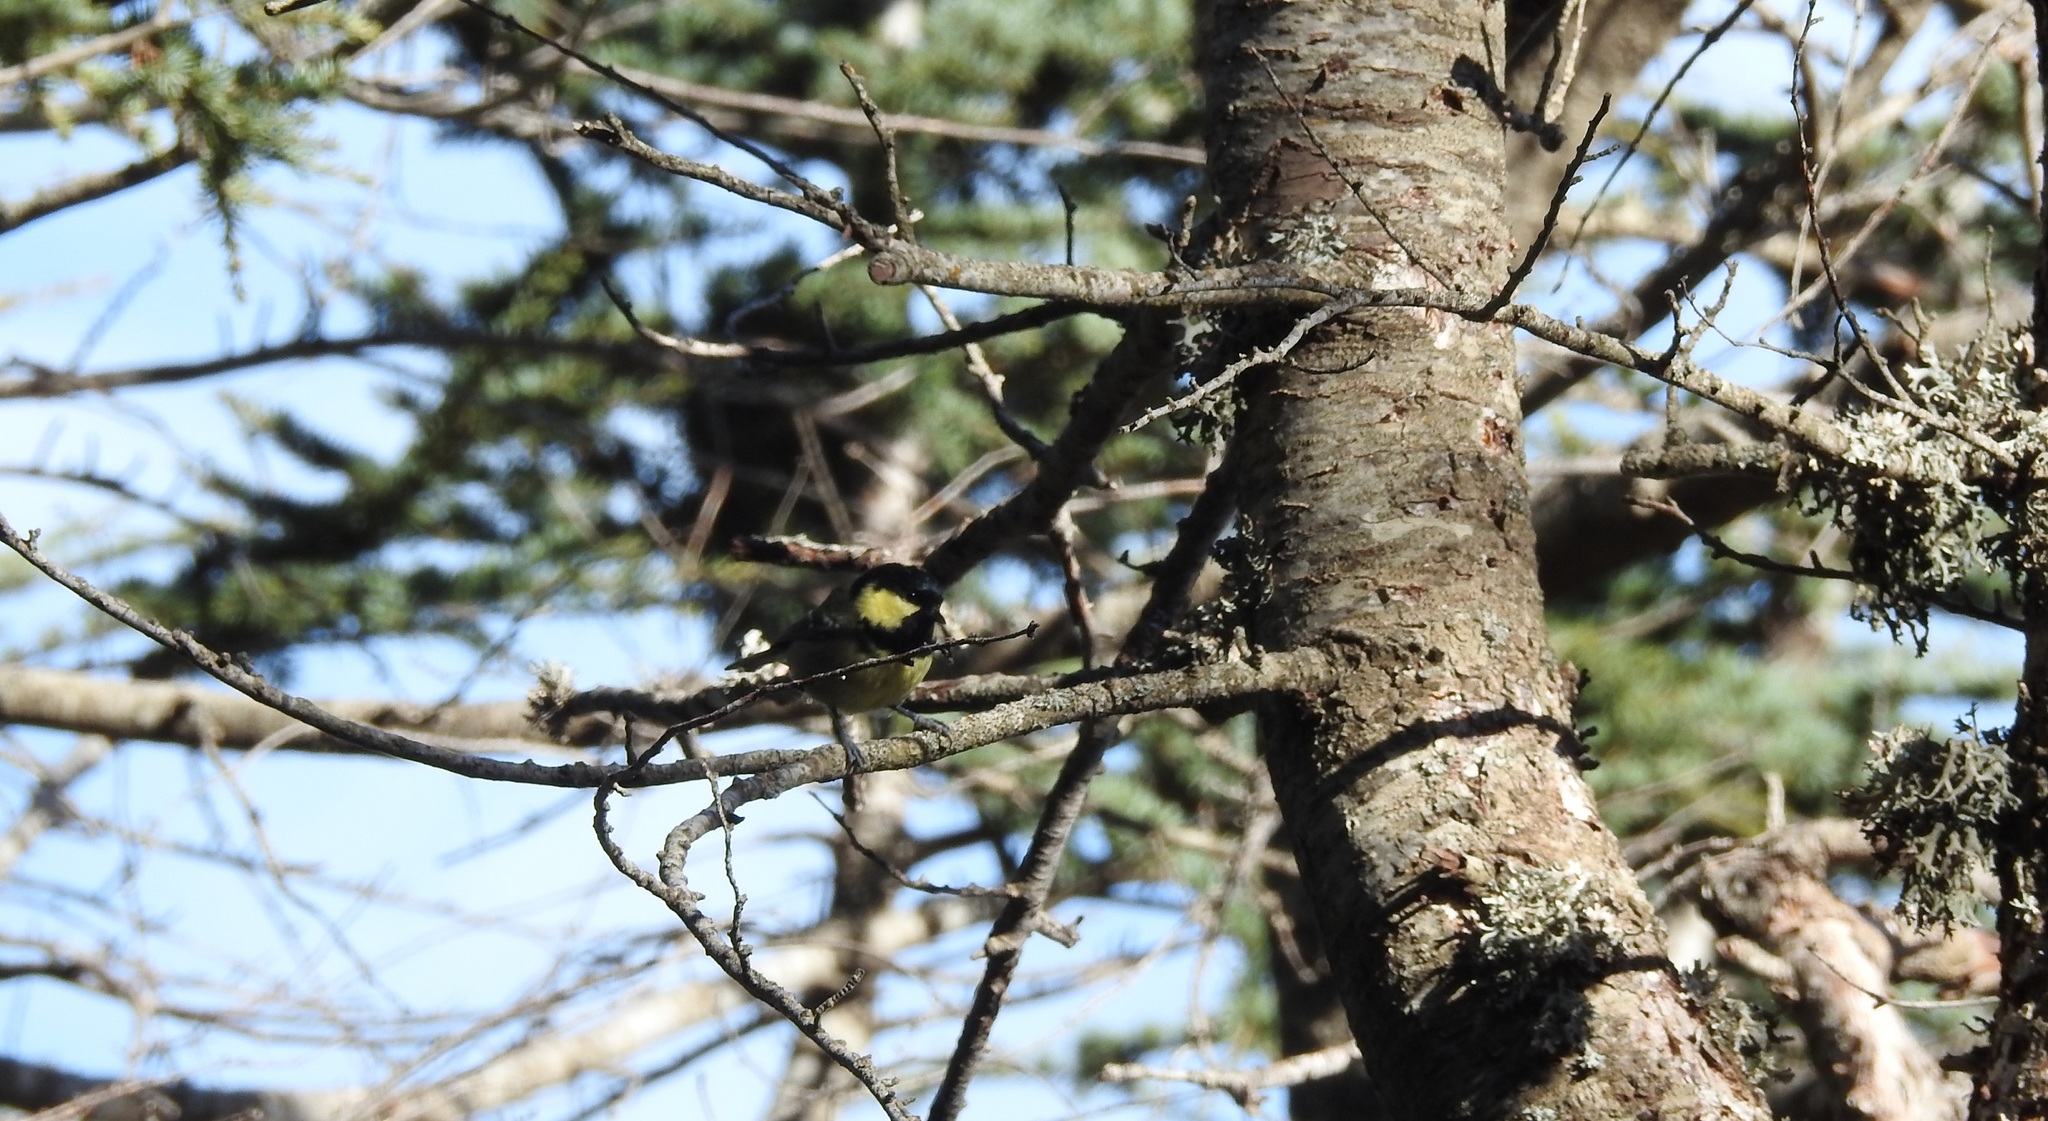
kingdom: Animalia
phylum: Chordata
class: Aves
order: Passeriformes
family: Paridae
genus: Periparus
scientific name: Periparus ater
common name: Coal tit
